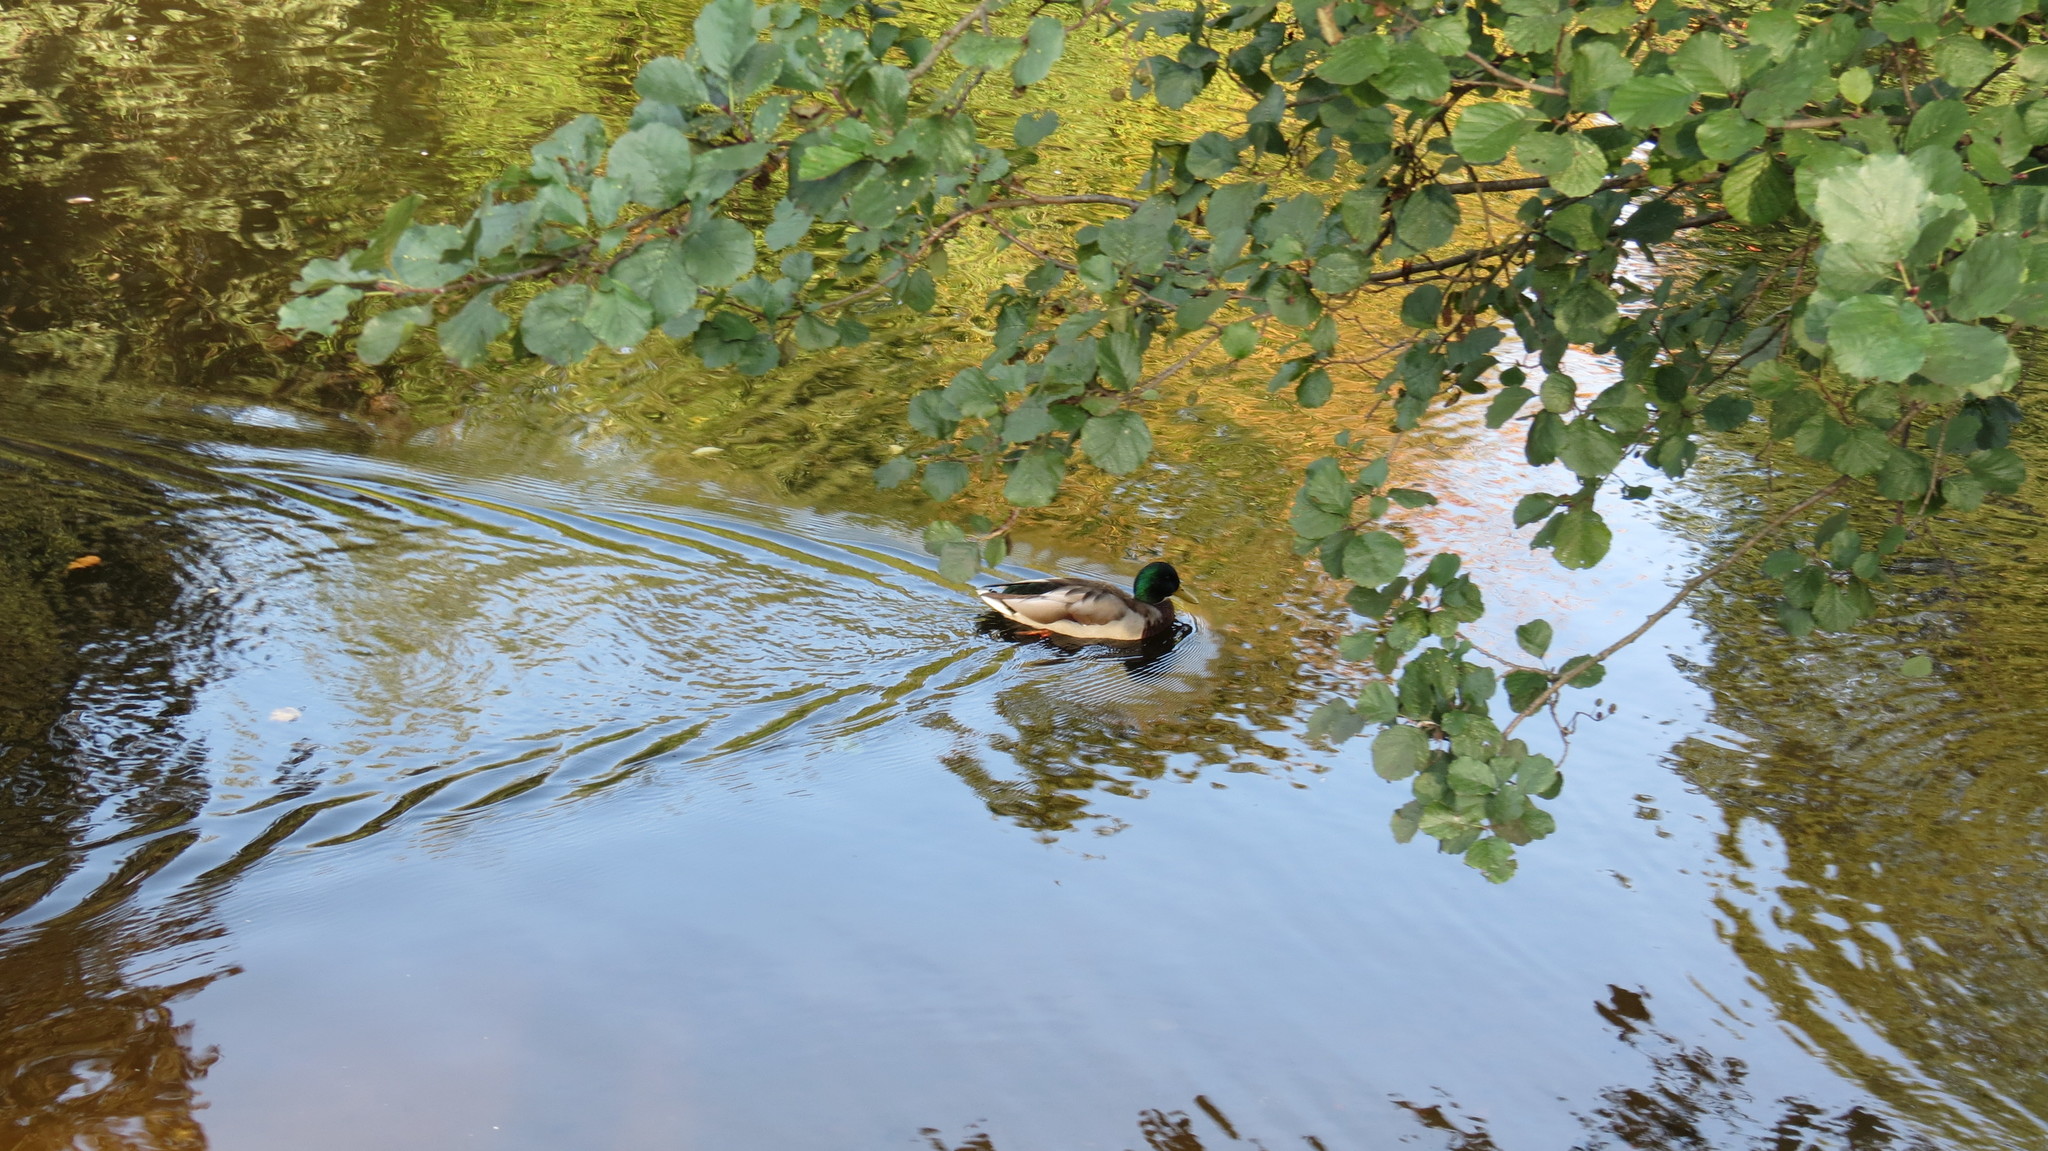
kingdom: Animalia
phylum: Chordata
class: Aves
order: Anseriformes
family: Anatidae
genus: Anas
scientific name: Anas platyrhynchos
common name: Mallard
